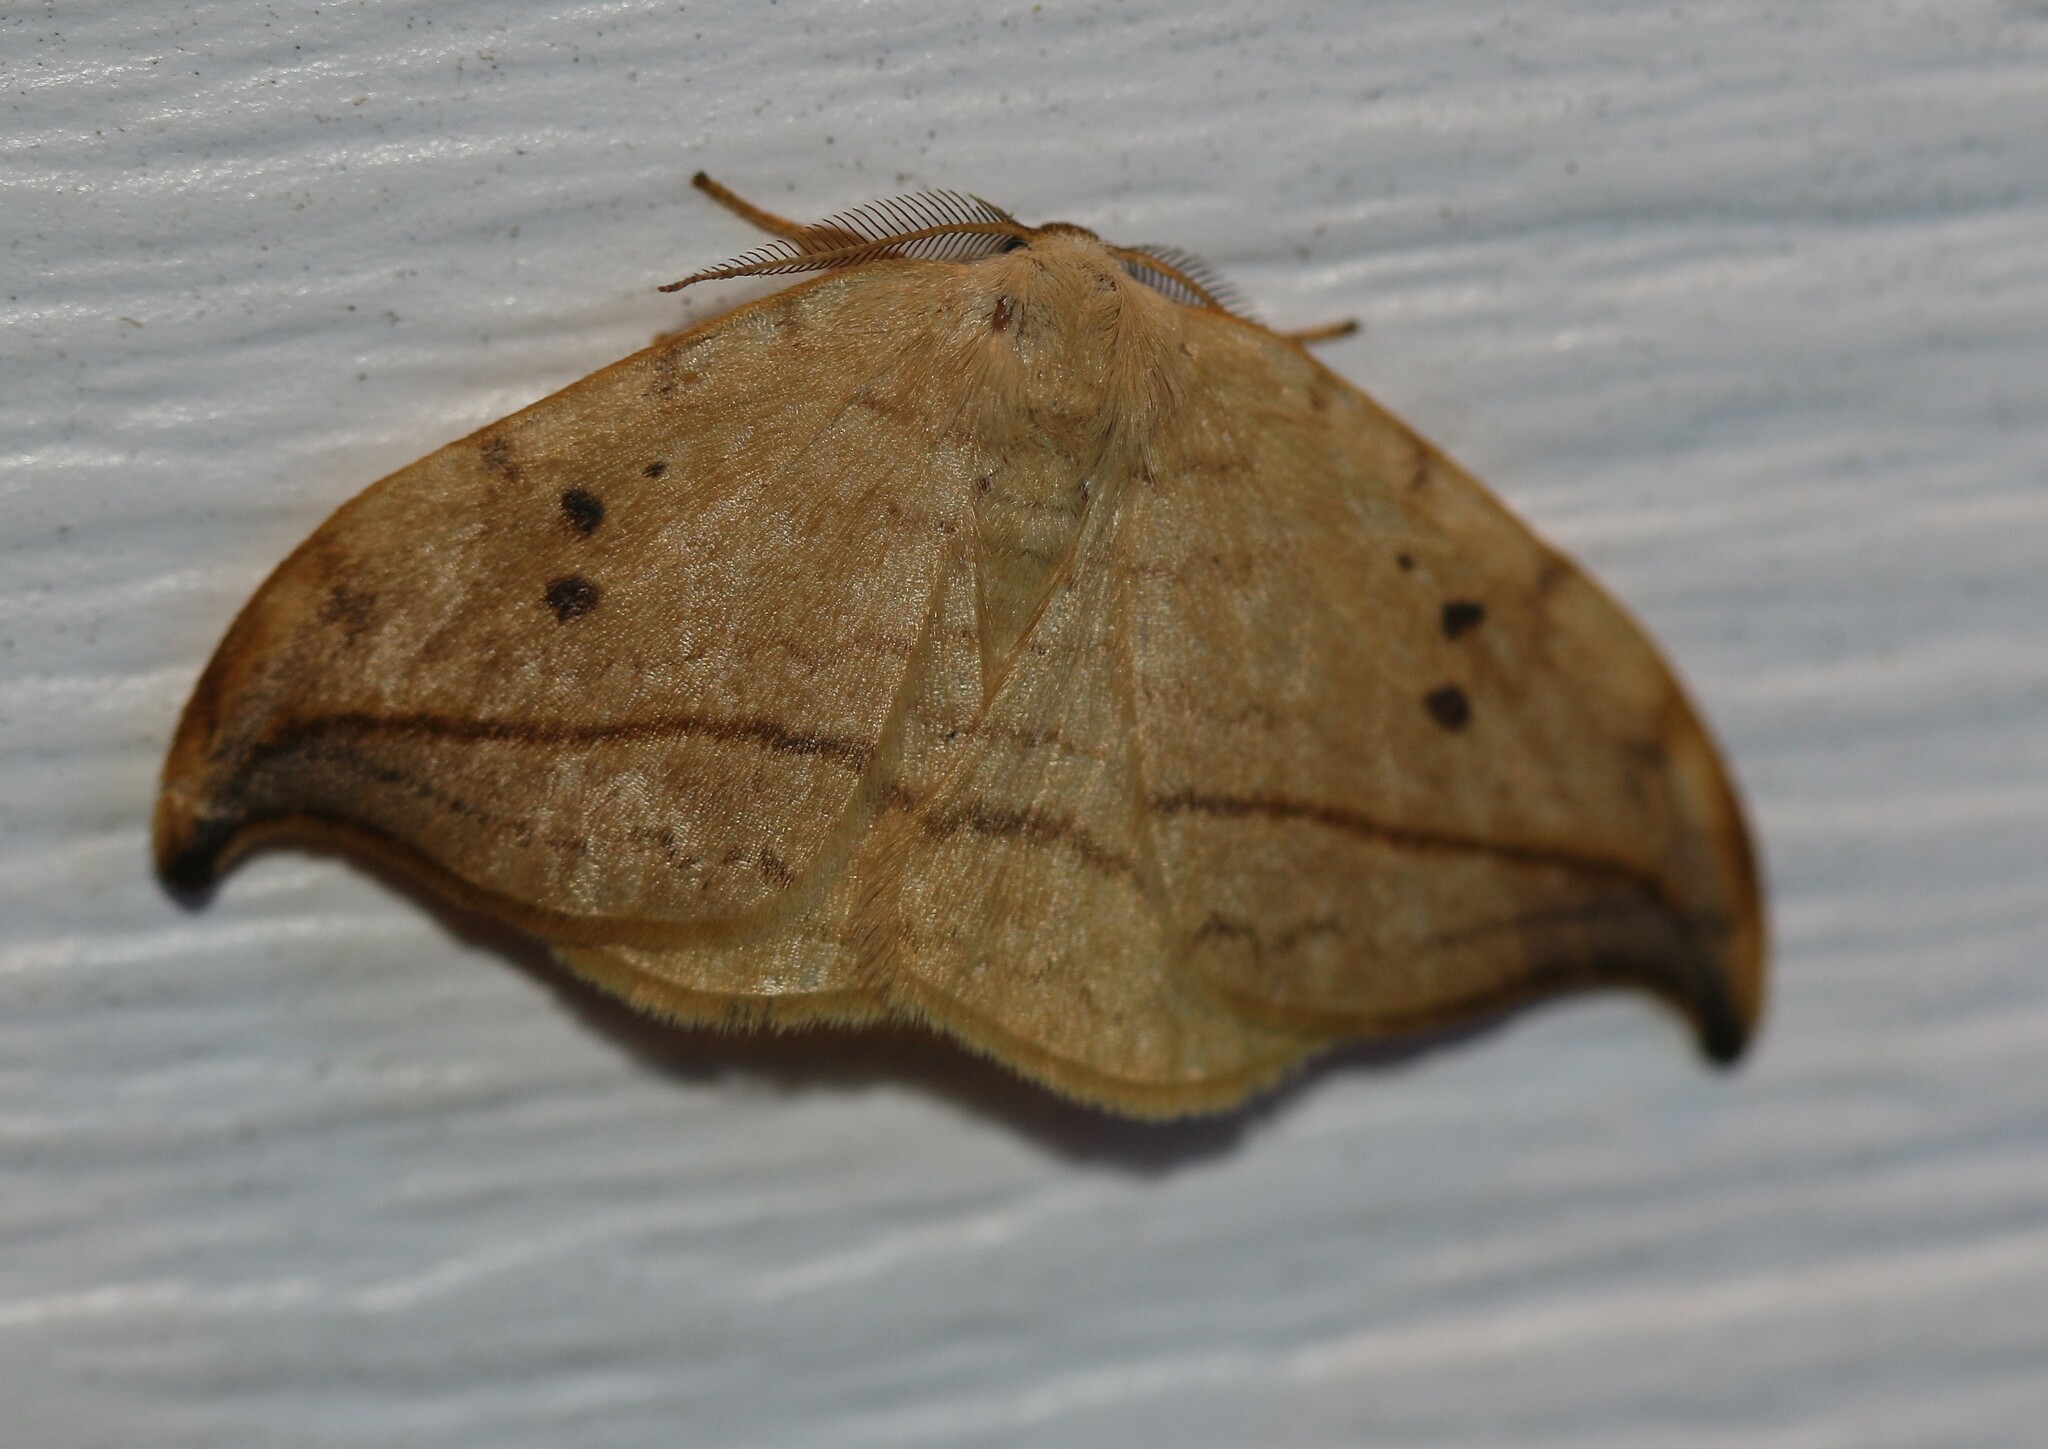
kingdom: Animalia
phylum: Arthropoda
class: Insecta
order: Lepidoptera
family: Drepanidae
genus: Drepana
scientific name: Drepana arcuata
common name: Arched hooktip moth
